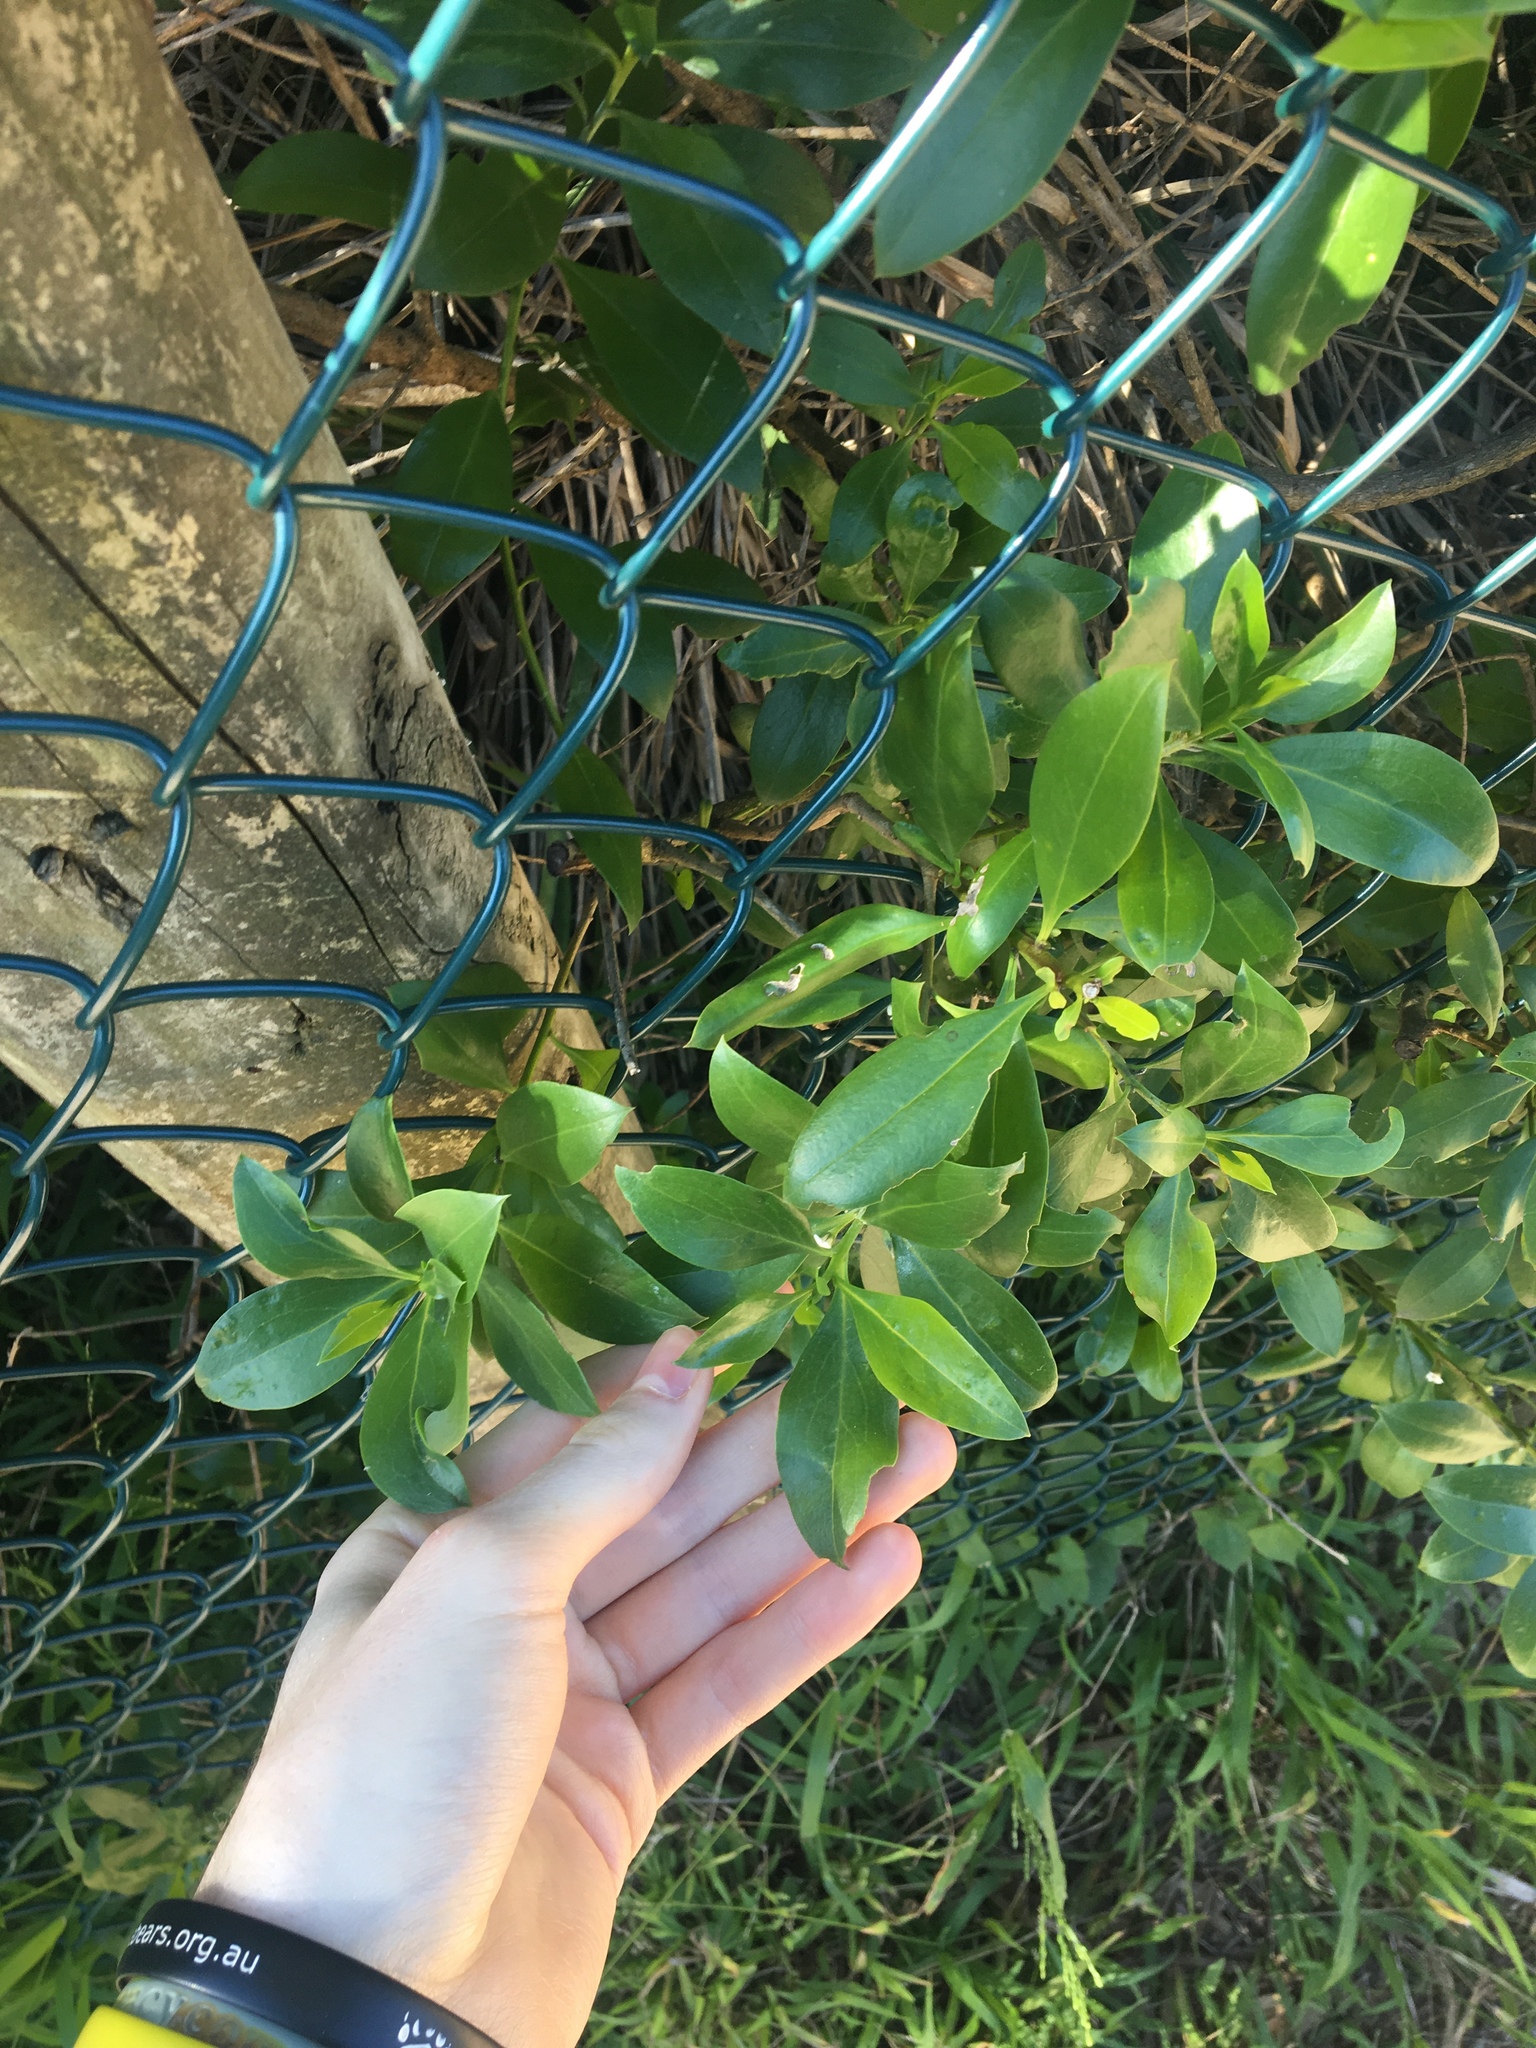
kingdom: Plantae
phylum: Tracheophyta
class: Magnoliopsida
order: Lamiales
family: Scrophulariaceae
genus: Myoporum
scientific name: Myoporum boninense
